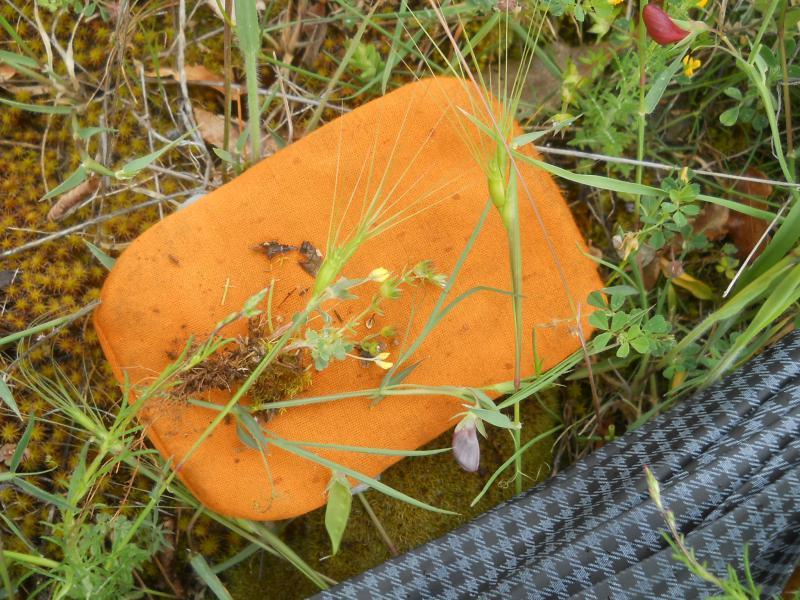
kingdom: Plantae
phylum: Tracheophyta
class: Liliopsida
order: Poales
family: Poaceae
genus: Aegilops
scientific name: Aegilops geniculata
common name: Ovate goat grass
